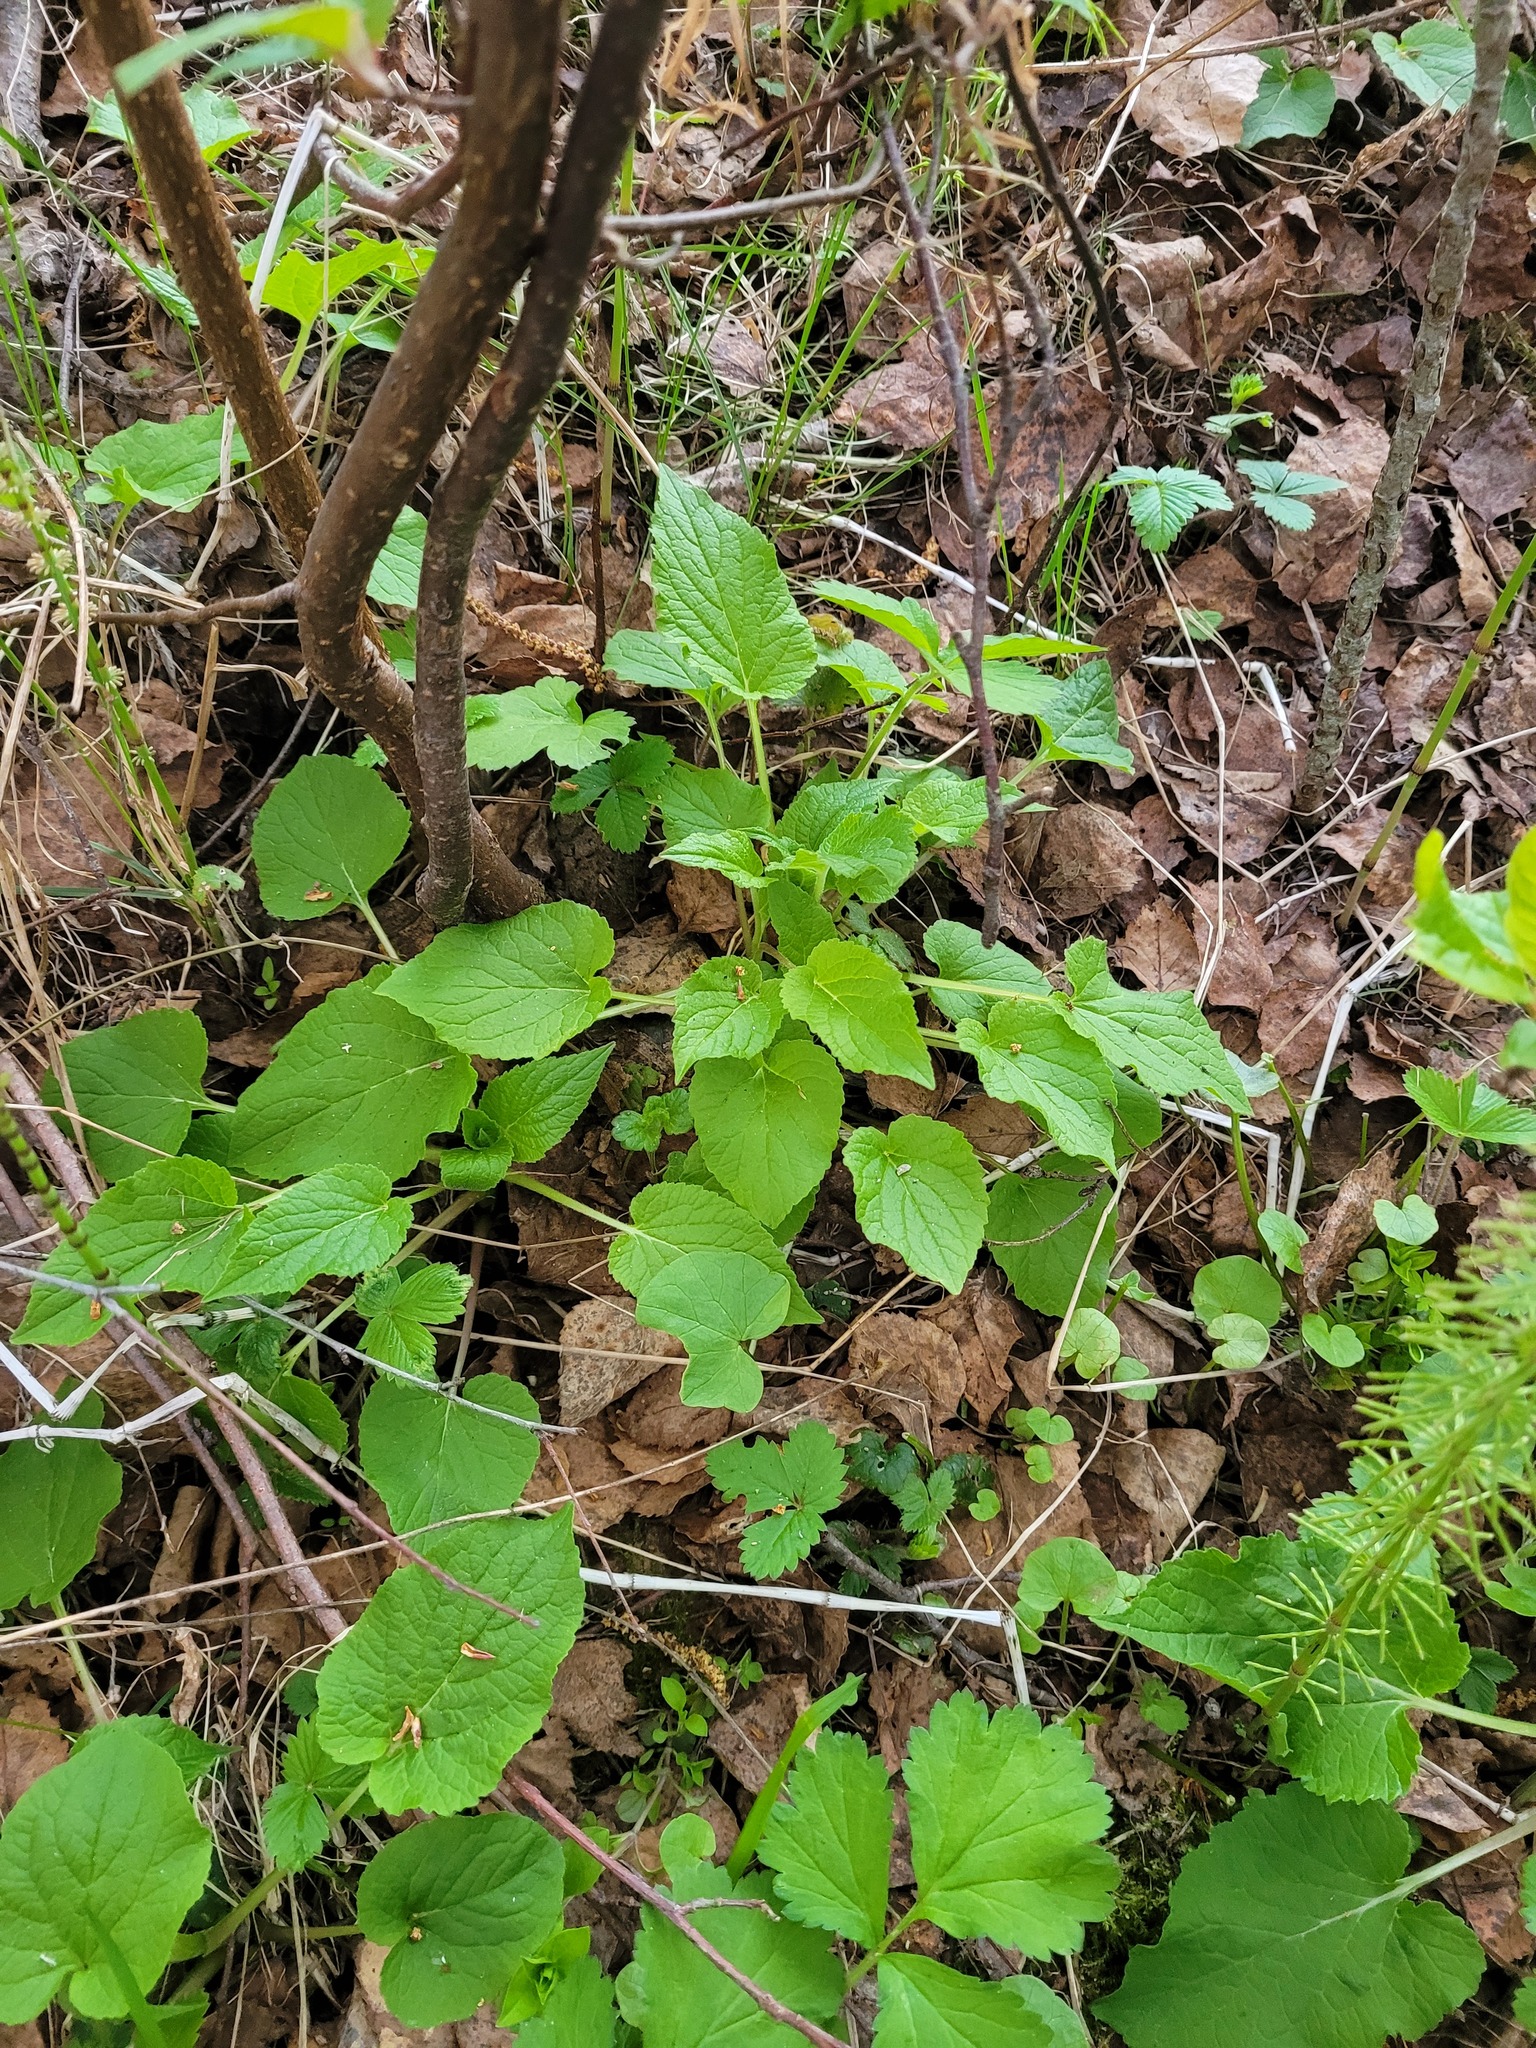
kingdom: Plantae
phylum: Tracheophyta
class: Magnoliopsida
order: Asterales
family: Campanulaceae
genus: Campanula
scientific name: Campanula latifolia
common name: Giant bellflower
